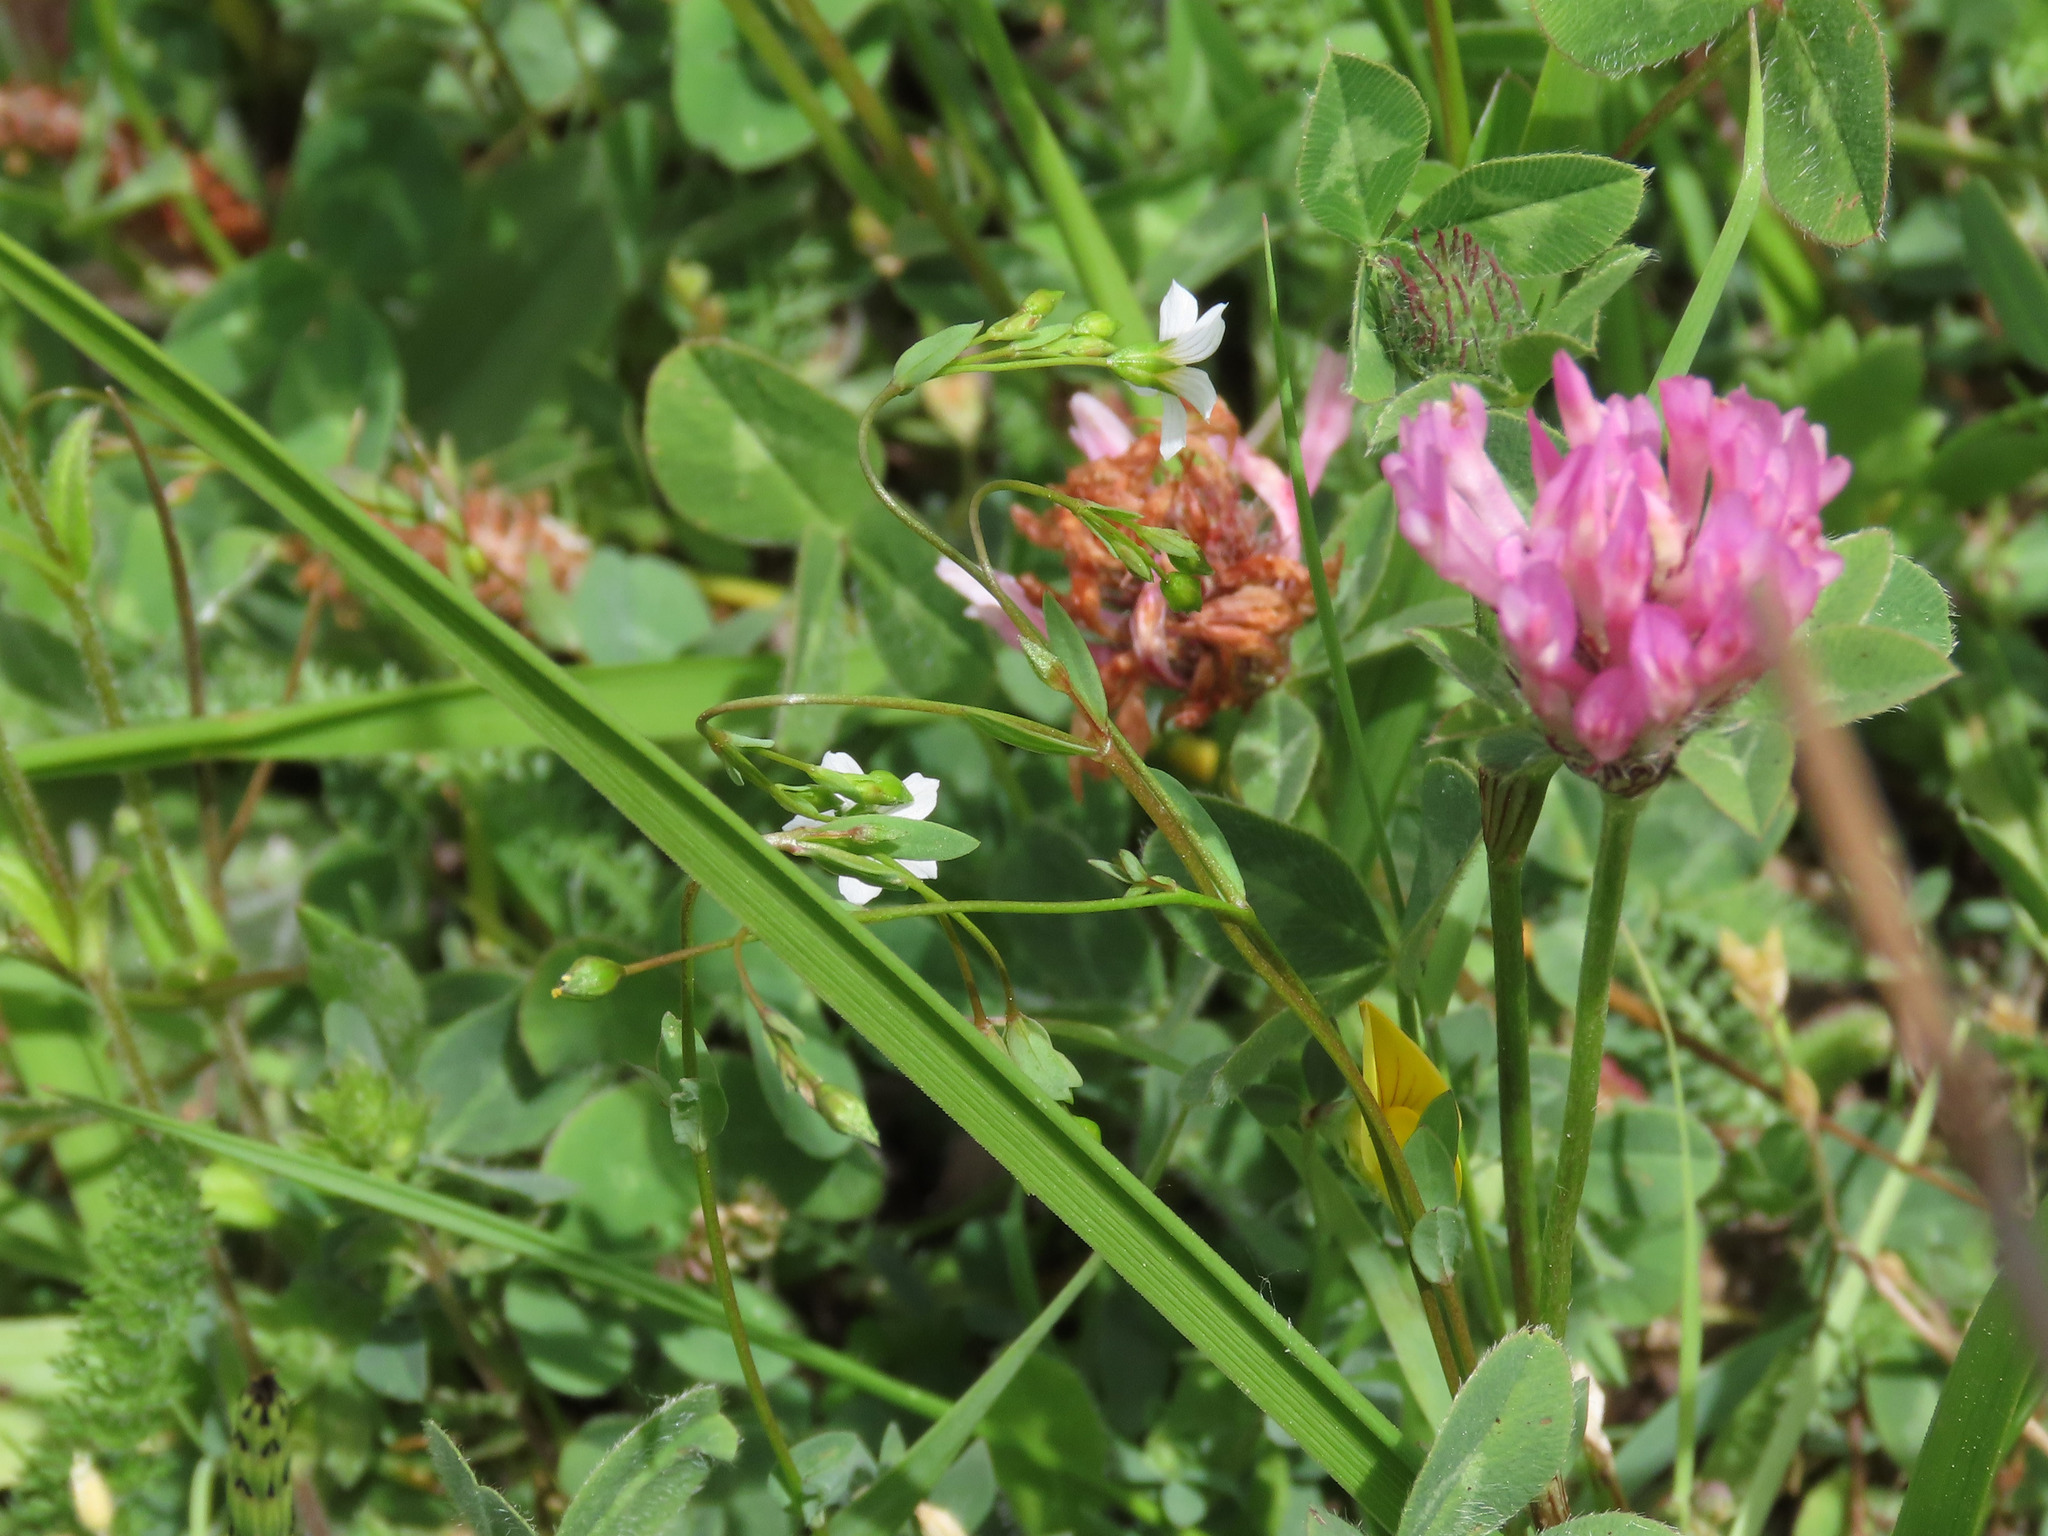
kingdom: Plantae
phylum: Tracheophyta
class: Magnoliopsida
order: Malpighiales
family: Linaceae
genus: Linum
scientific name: Linum catharticum
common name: Fairy flax
